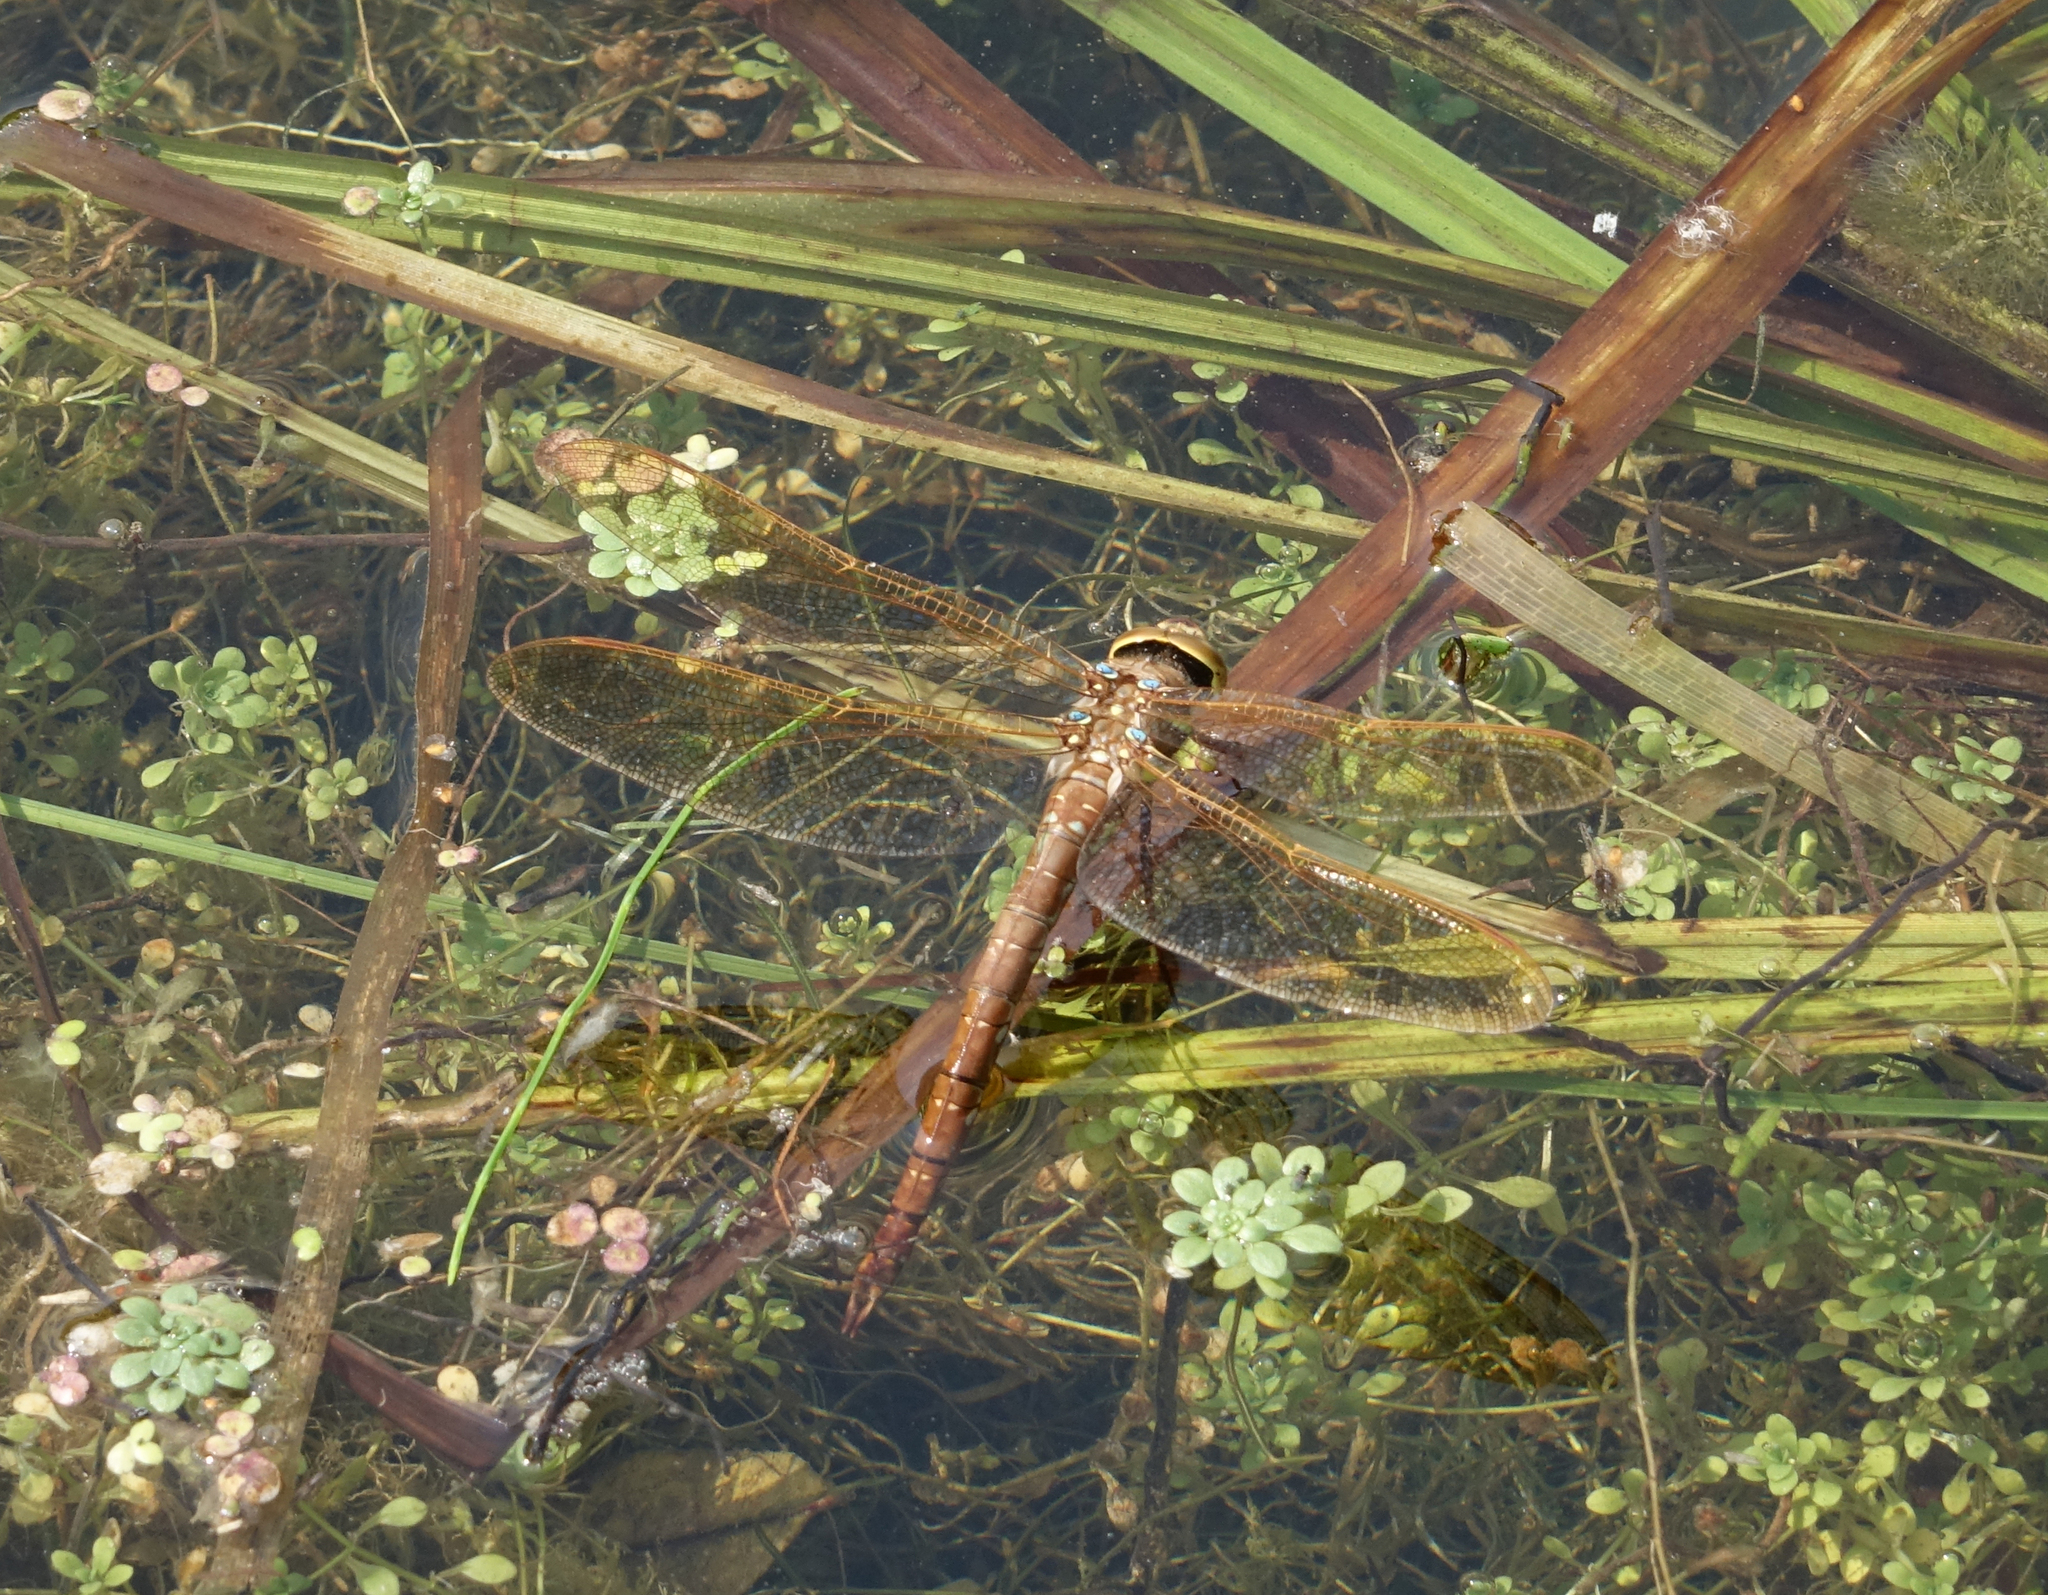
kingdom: Animalia
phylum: Arthropoda
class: Insecta
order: Odonata
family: Aeshnidae
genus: Aeshna
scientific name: Aeshna grandis
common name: Brown hawker
